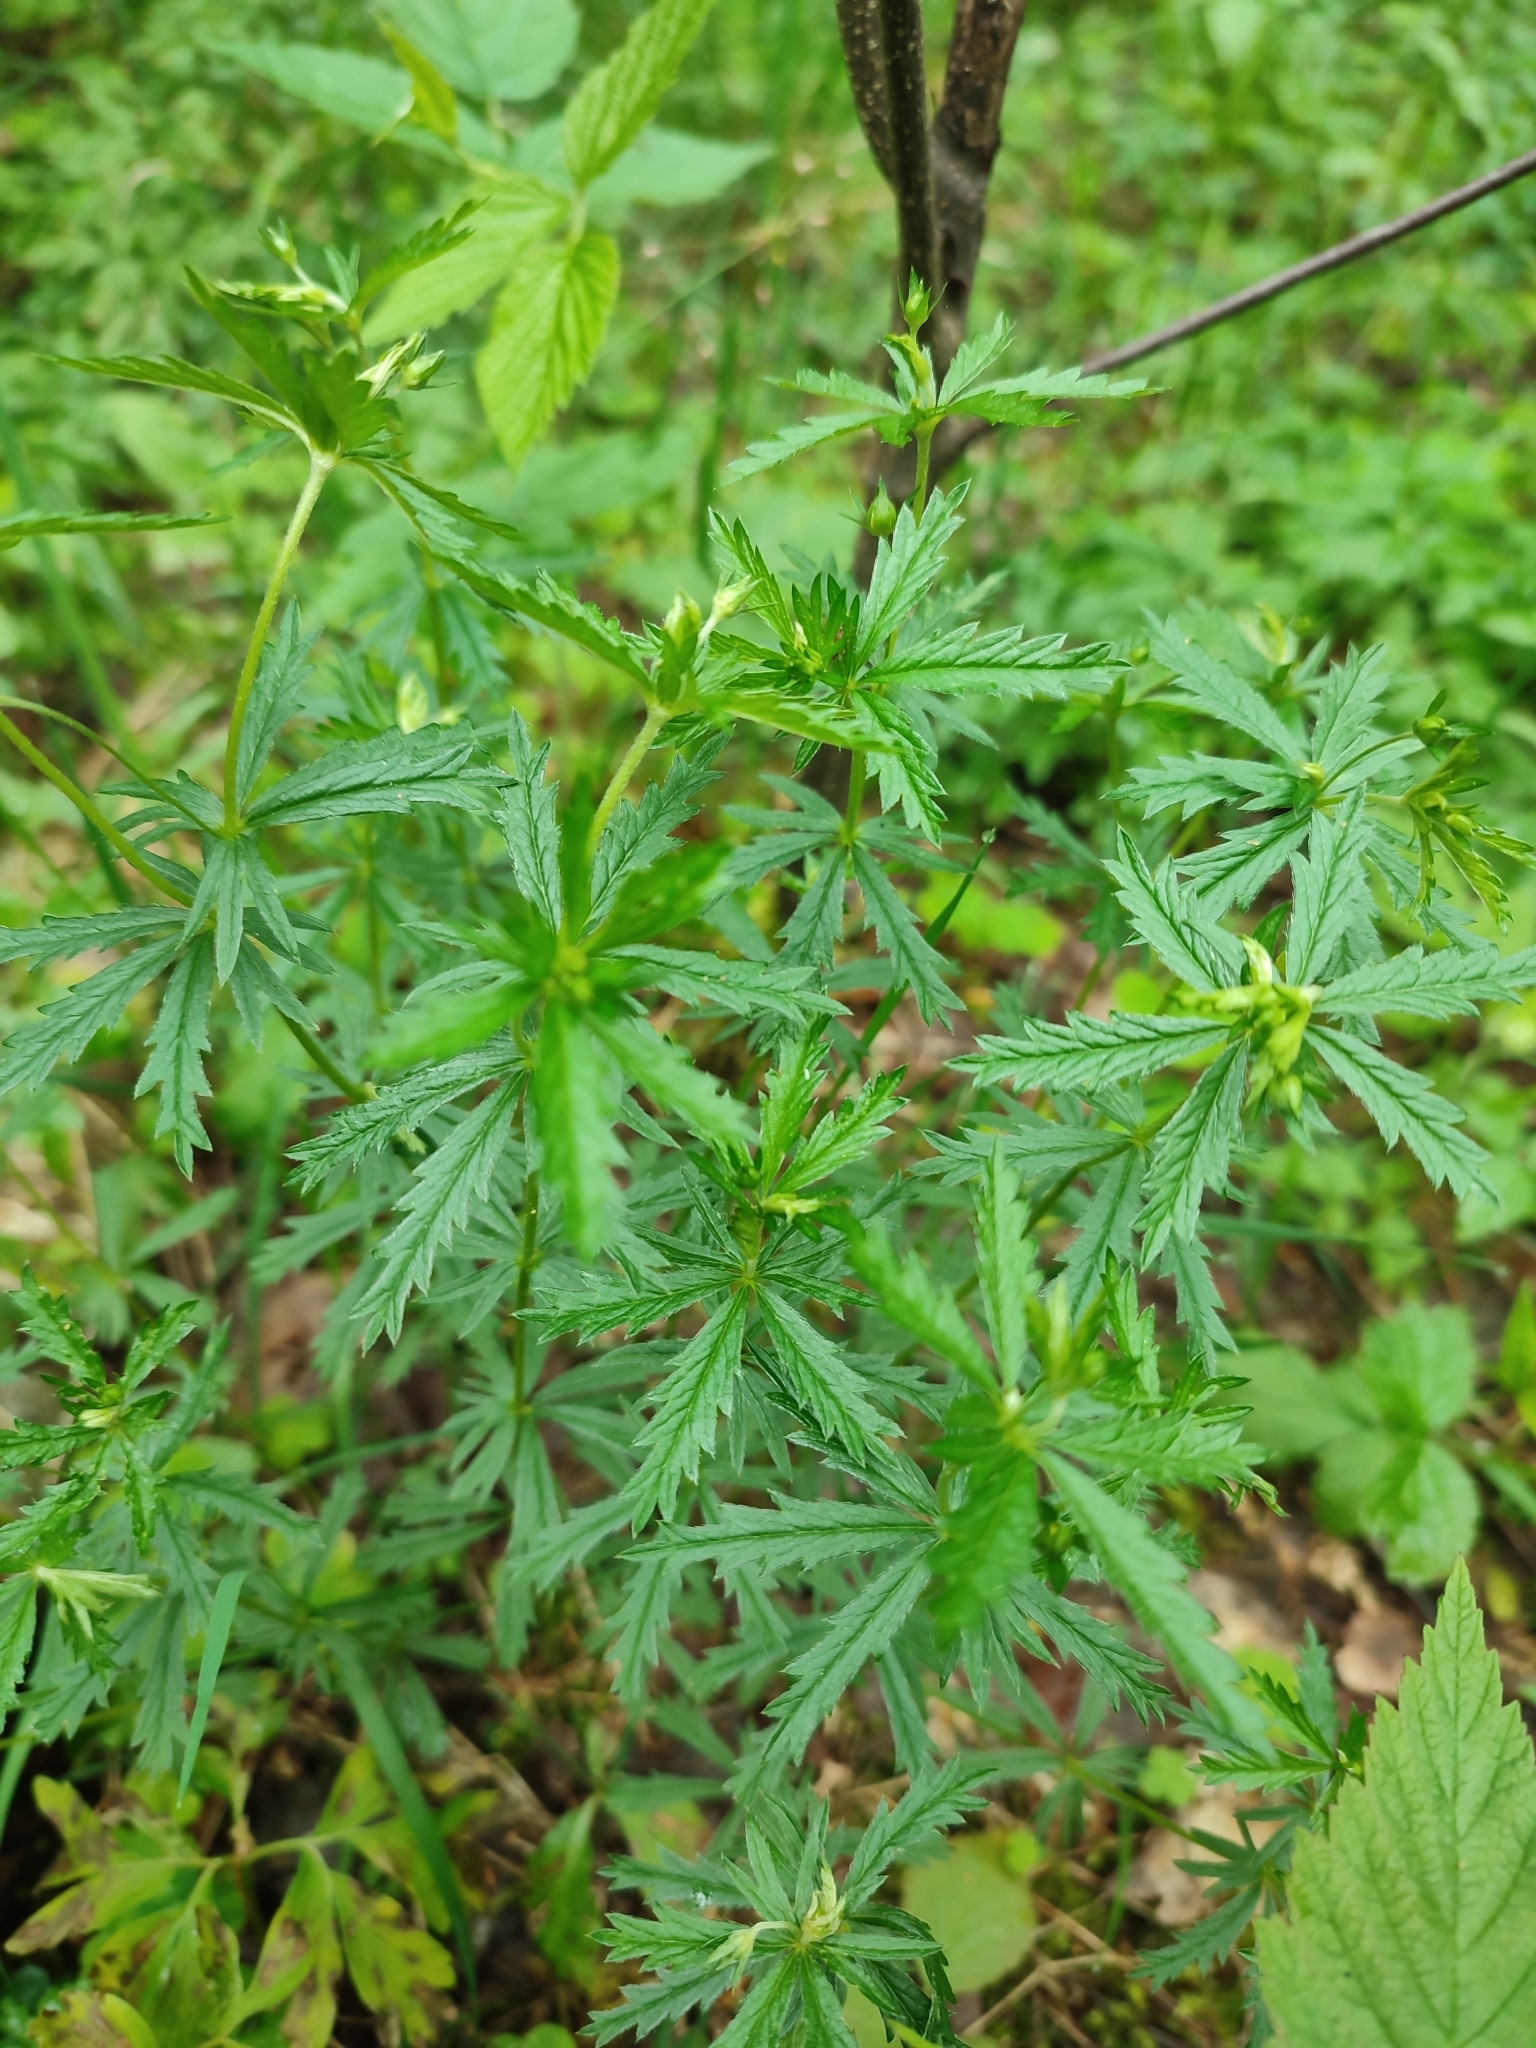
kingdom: Plantae
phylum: Tracheophyta
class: Magnoliopsida
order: Rosales
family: Rosaceae
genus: Potentilla
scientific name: Potentilla erecta
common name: Tormentil
